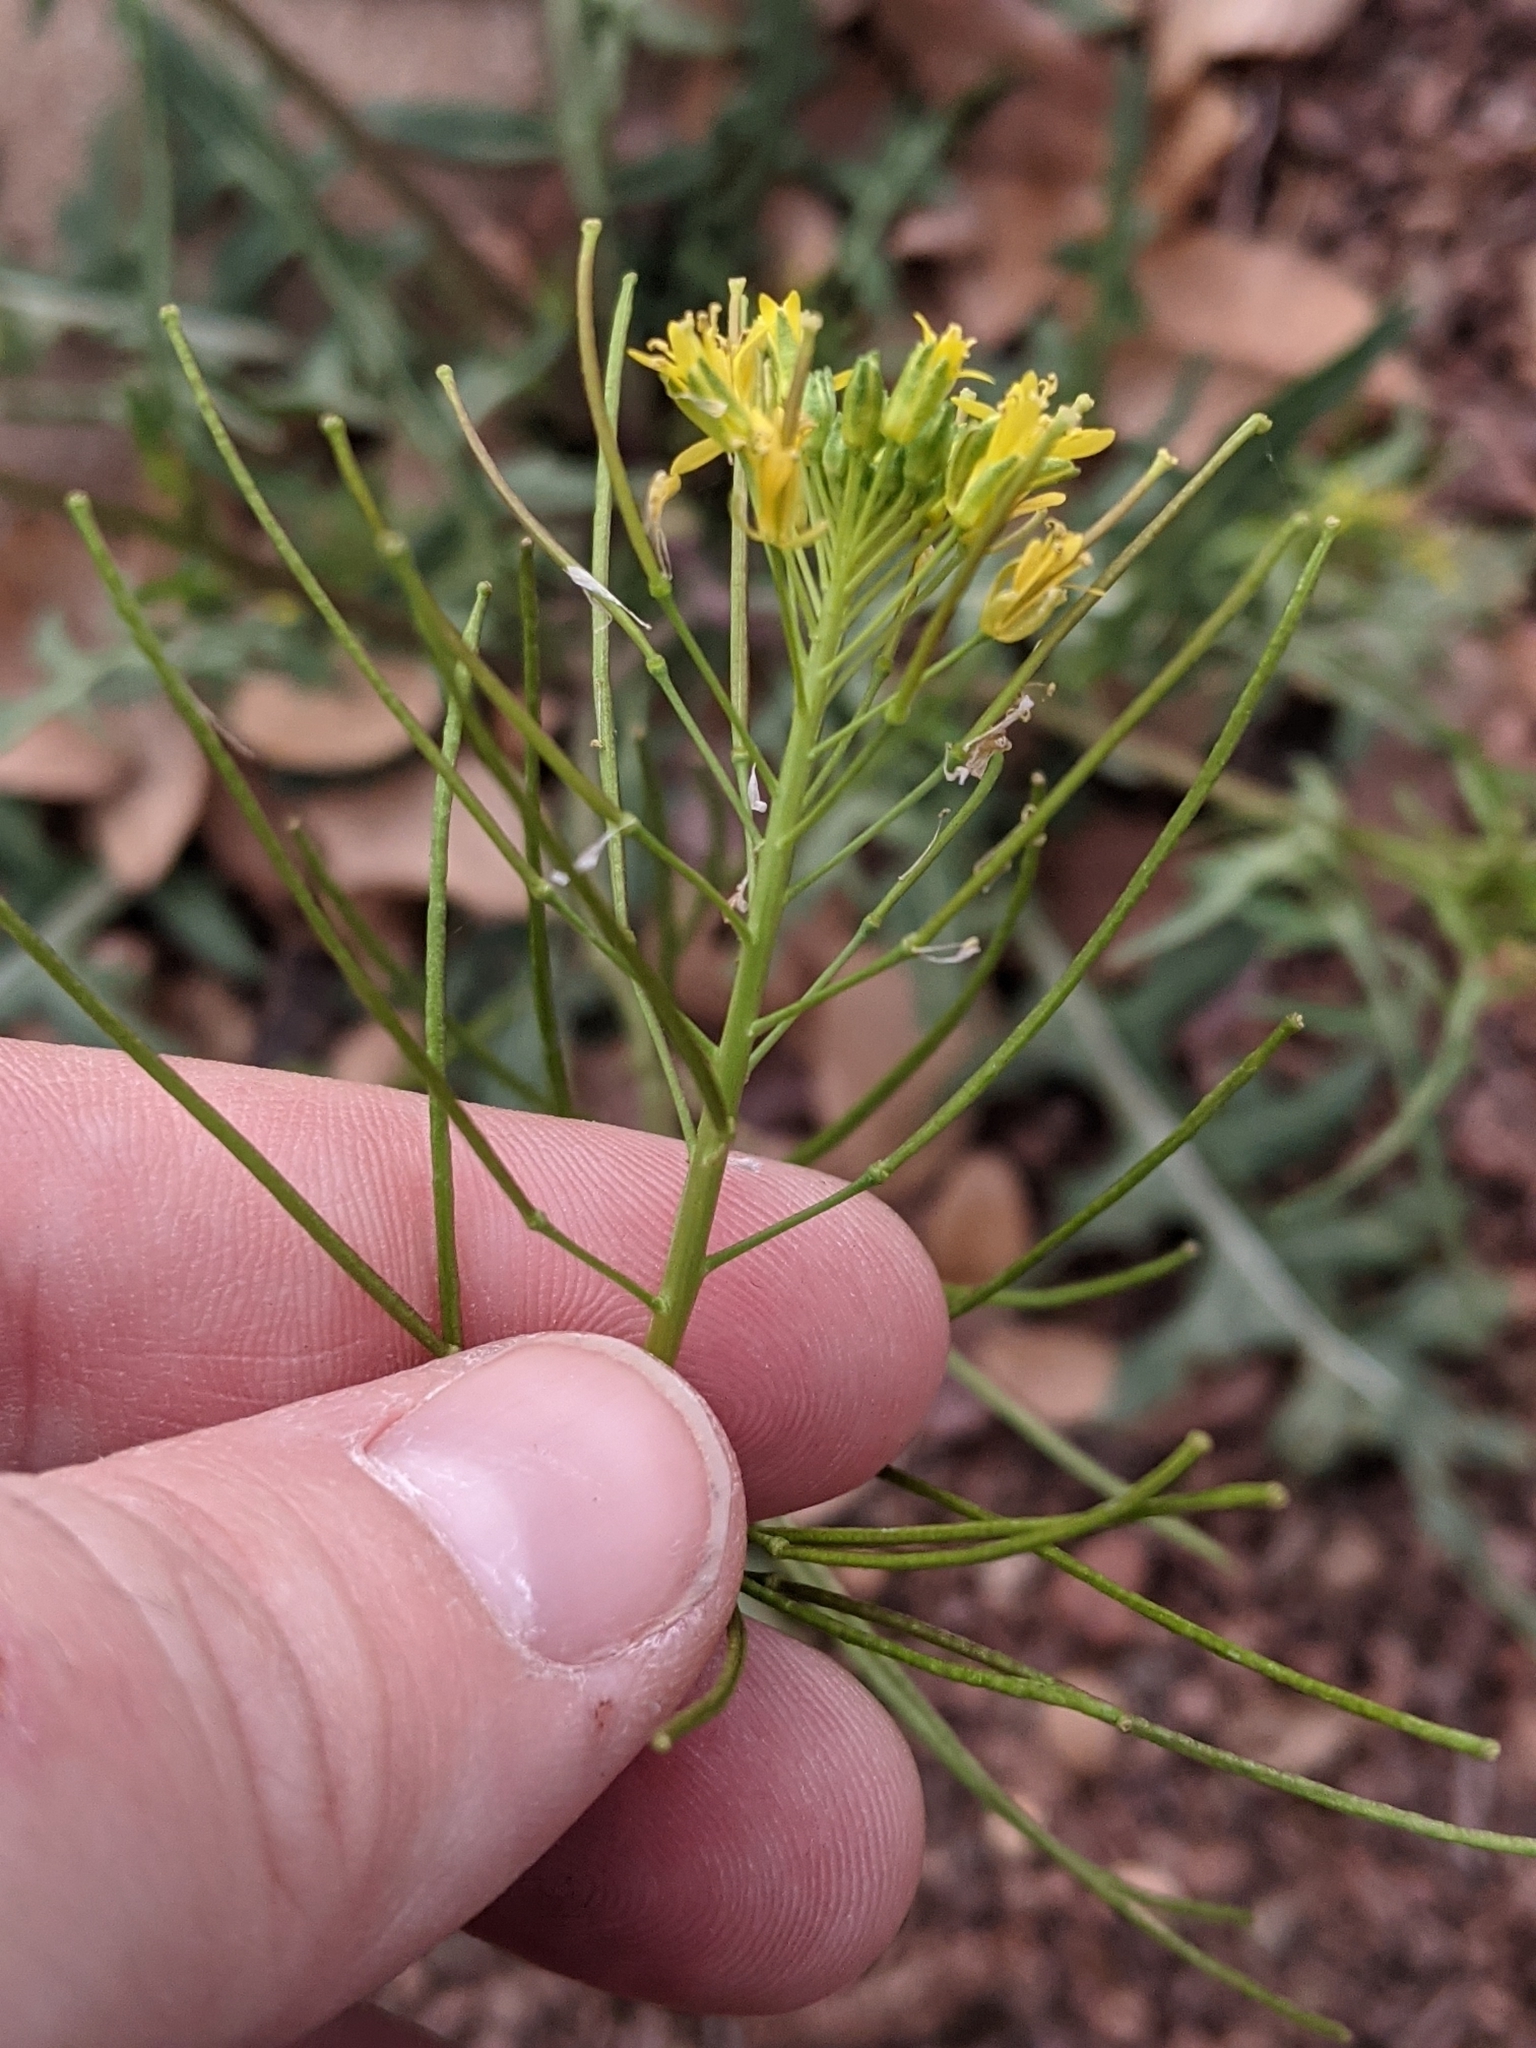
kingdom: Plantae
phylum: Tracheophyta
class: Magnoliopsida
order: Brassicales
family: Brassicaceae
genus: Sisymbrium
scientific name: Sisymbrium irio
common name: London rocket
